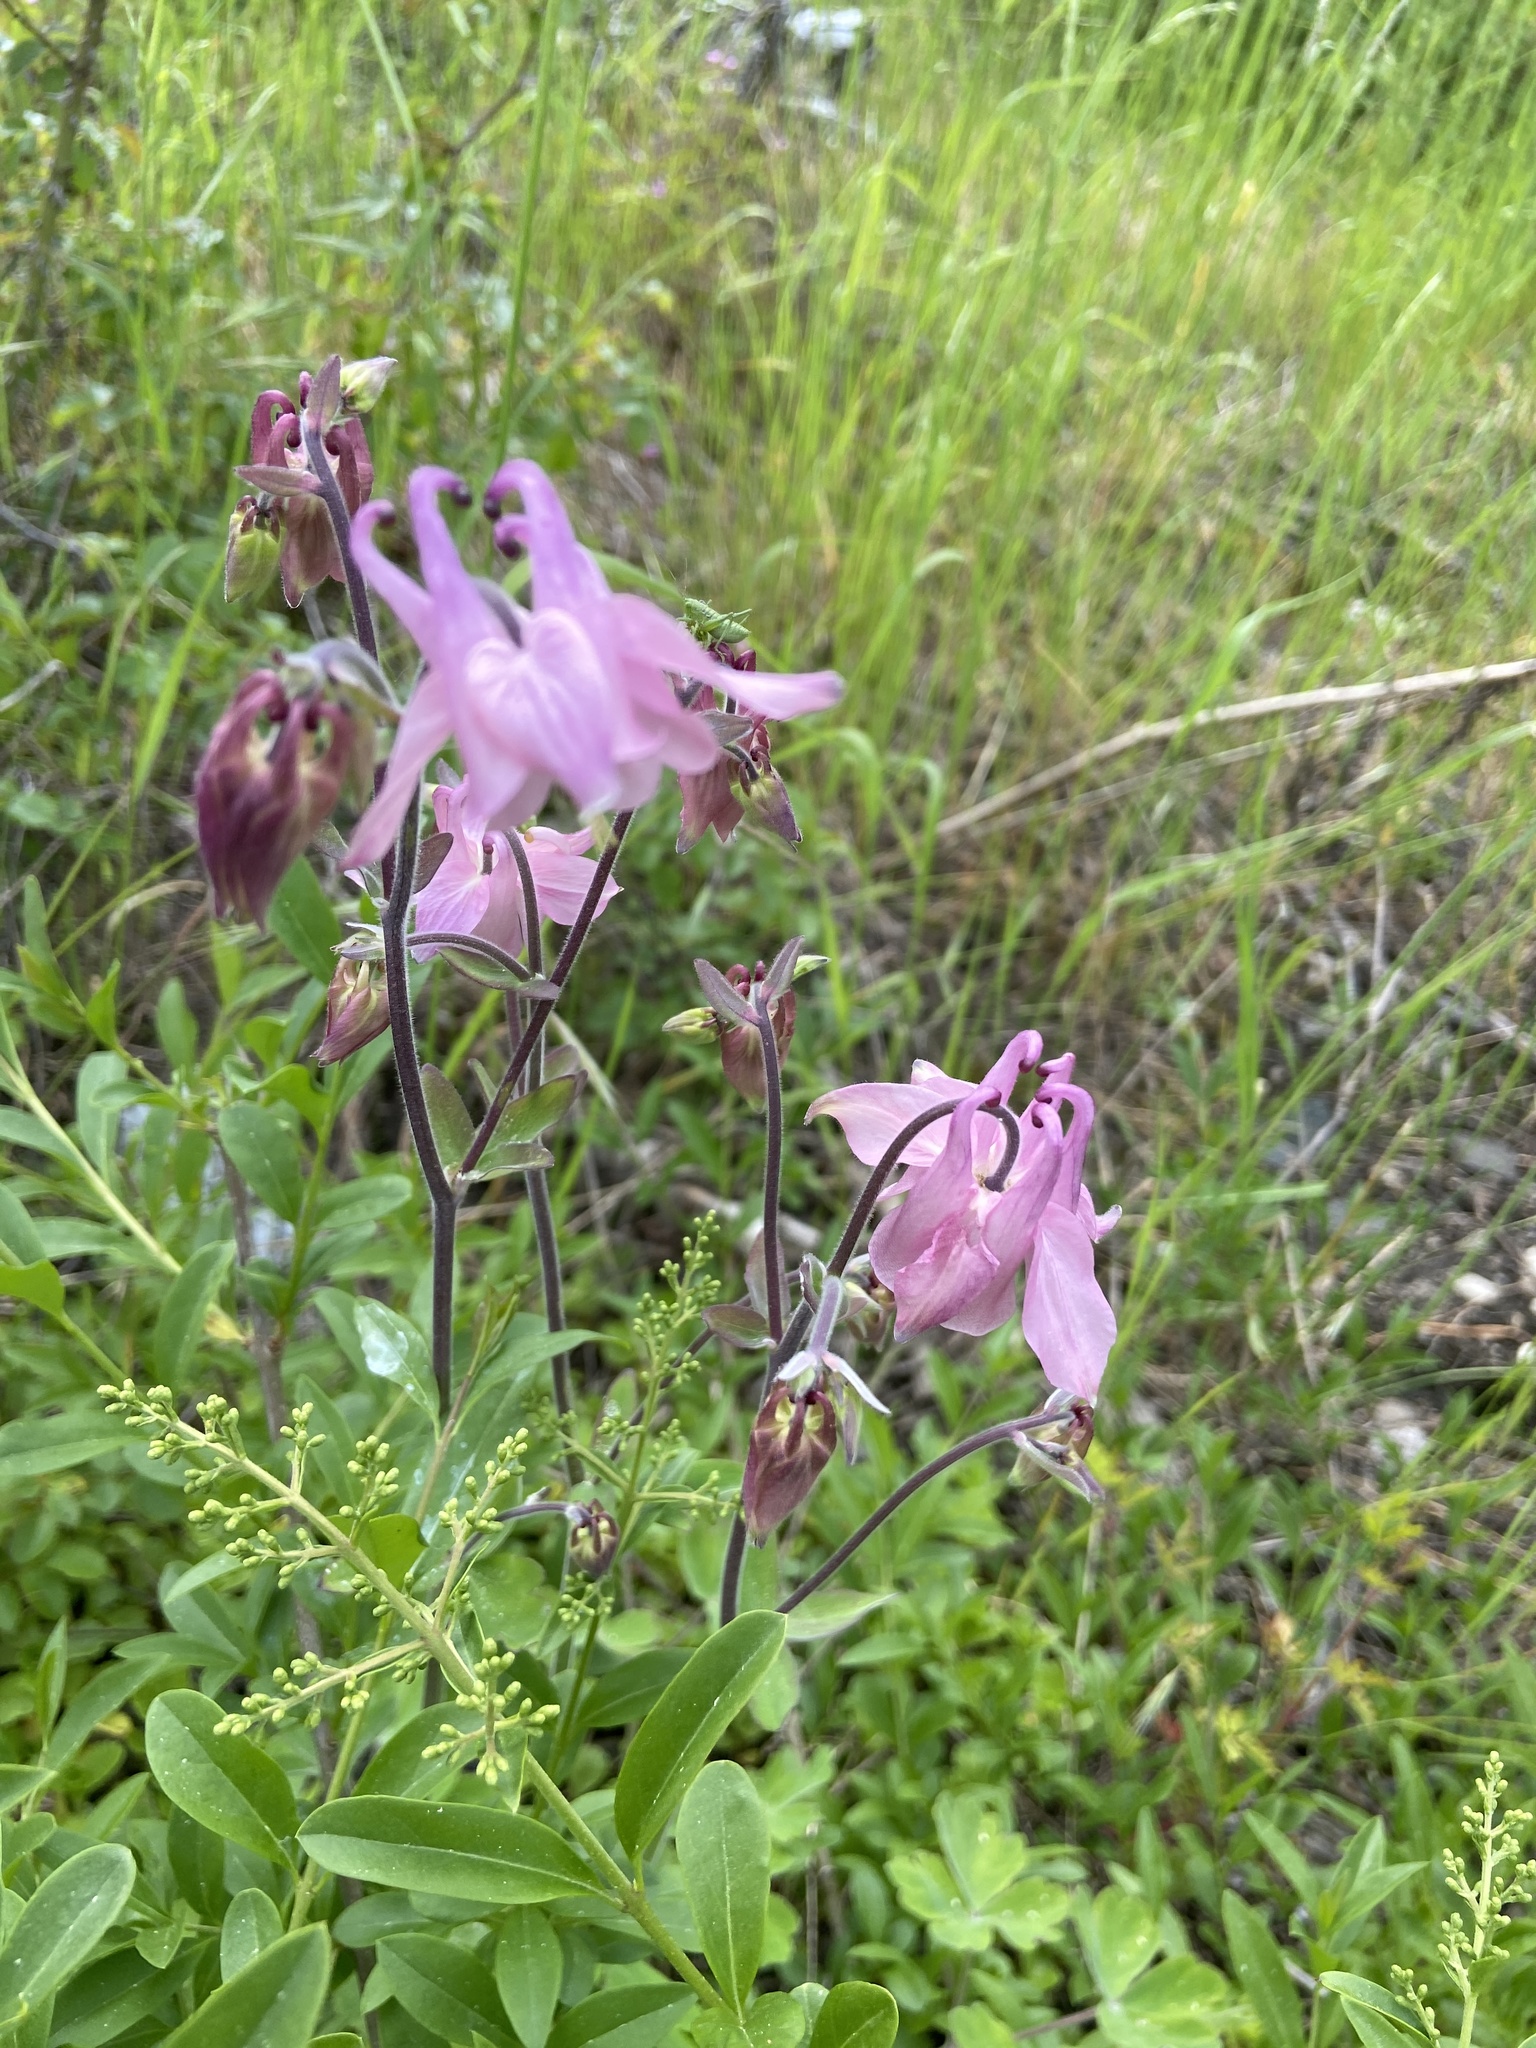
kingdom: Plantae
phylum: Tracheophyta
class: Magnoliopsida
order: Ranunculales
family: Ranunculaceae
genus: Aquilegia
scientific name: Aquilegia vulgaris
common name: Columbine
